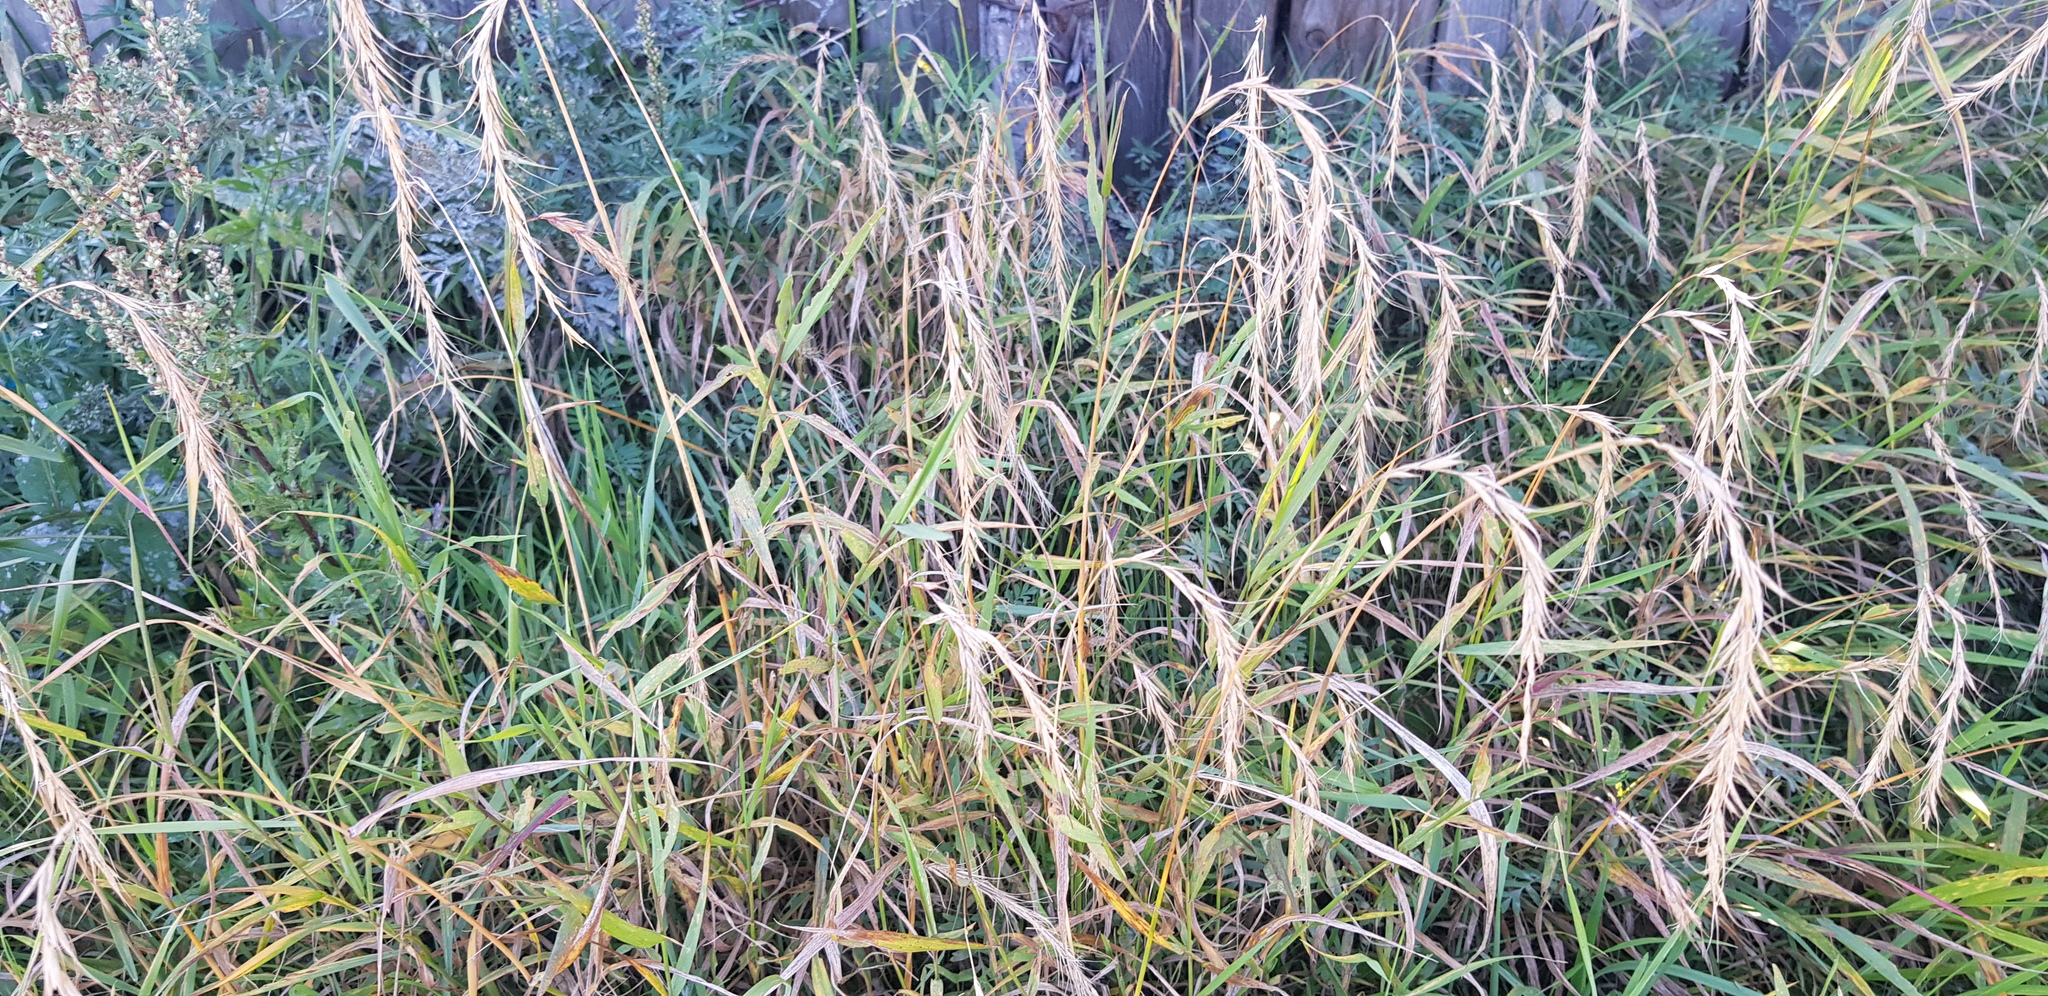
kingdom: Plantae
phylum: Tracheophyta
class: Liliopsida
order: Poales
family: Poaceae
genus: Elymus
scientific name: Elymus sibiricus
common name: Siberian wildrye
